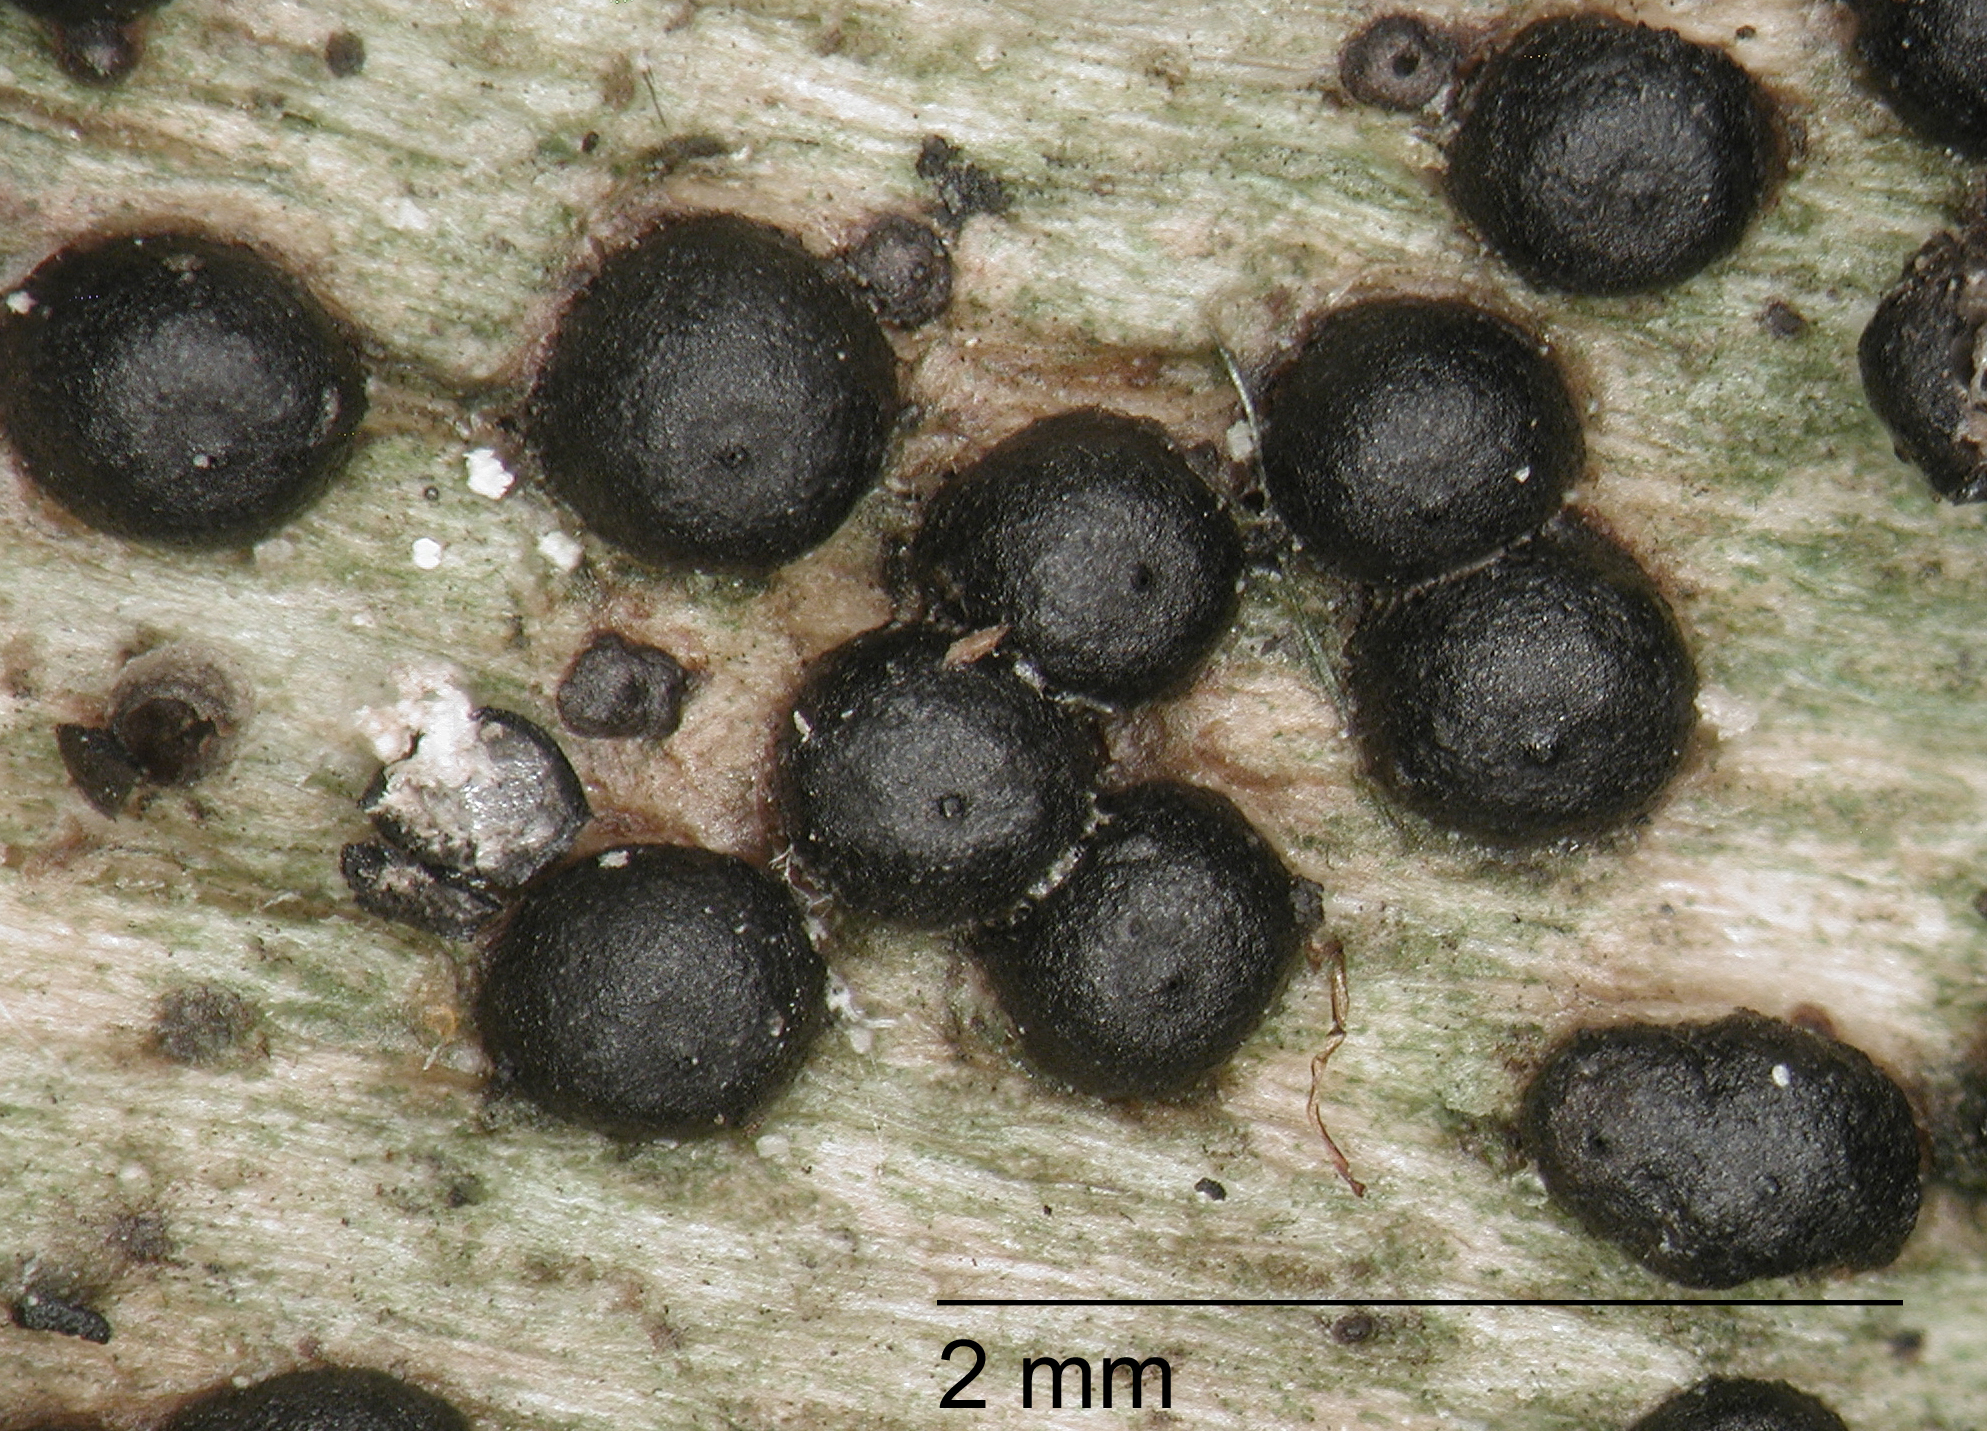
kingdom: Fungi
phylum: Ascomycota
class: Sordariomycetes
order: Xylariales
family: Xylariaceae
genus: Rosellinia
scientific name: Rosellinia johnstonii
